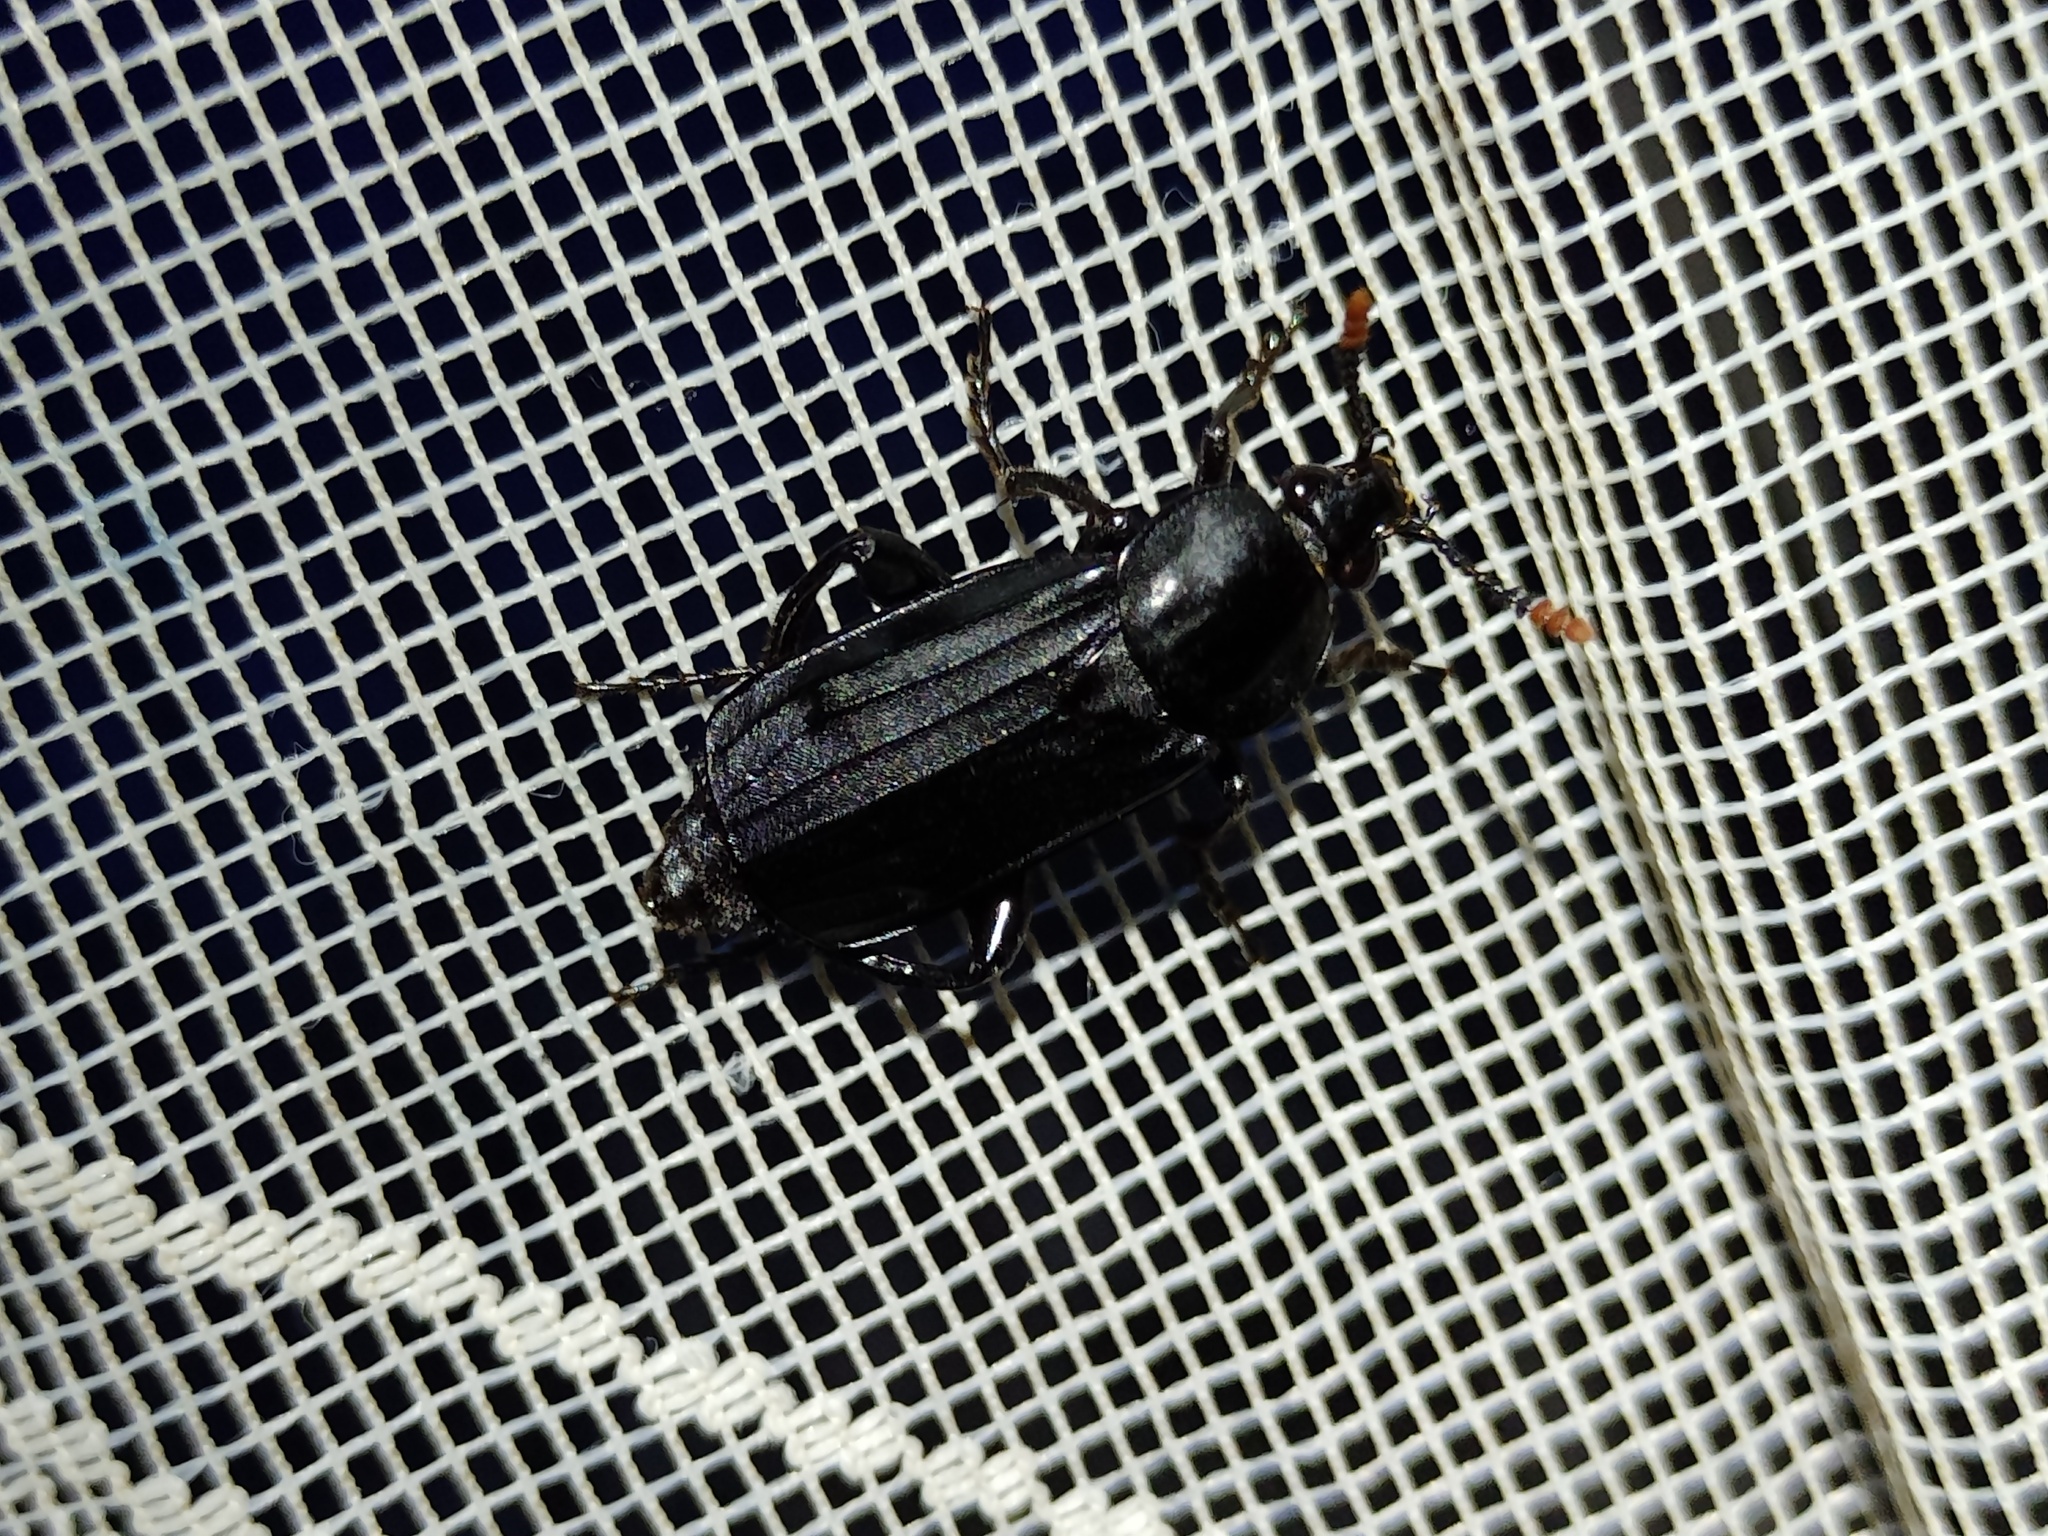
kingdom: Animalia
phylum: Arthropoda
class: Insecta
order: Coleoptera
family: Staphylinidae
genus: Necrodes
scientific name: Necrodes littoralis
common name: Shore sexton beetle
